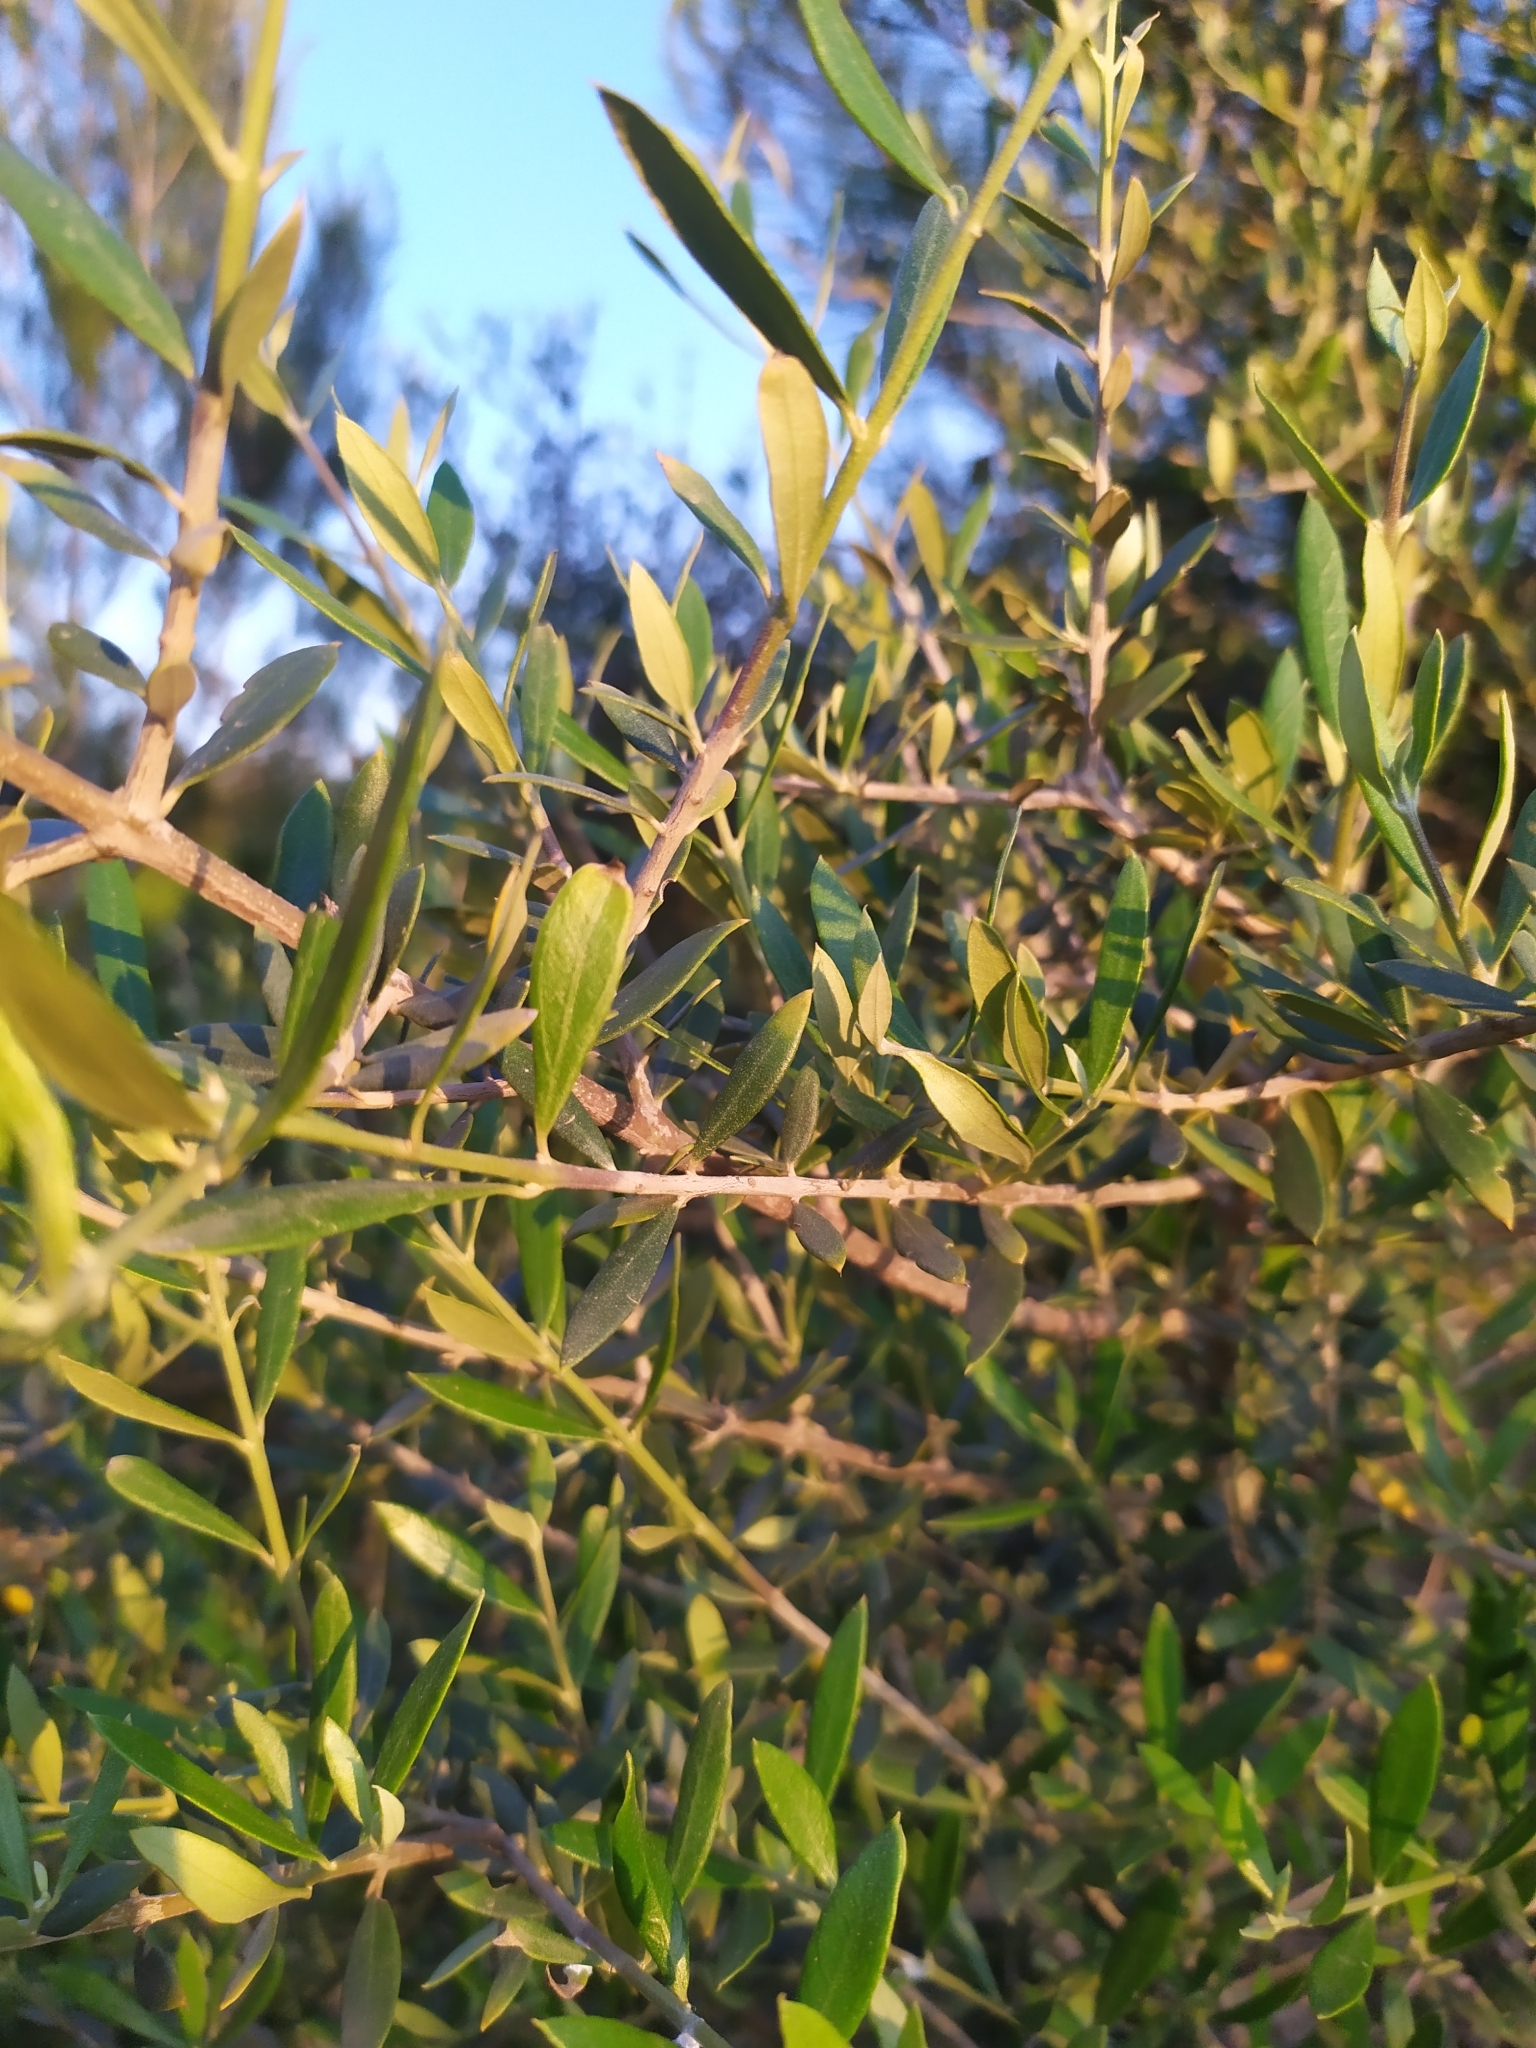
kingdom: Plantae
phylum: Tracheophyta
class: Magnoliopsida
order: Lamiales
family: Oleaceae
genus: Olea
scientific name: Olea europaea
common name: Olive
